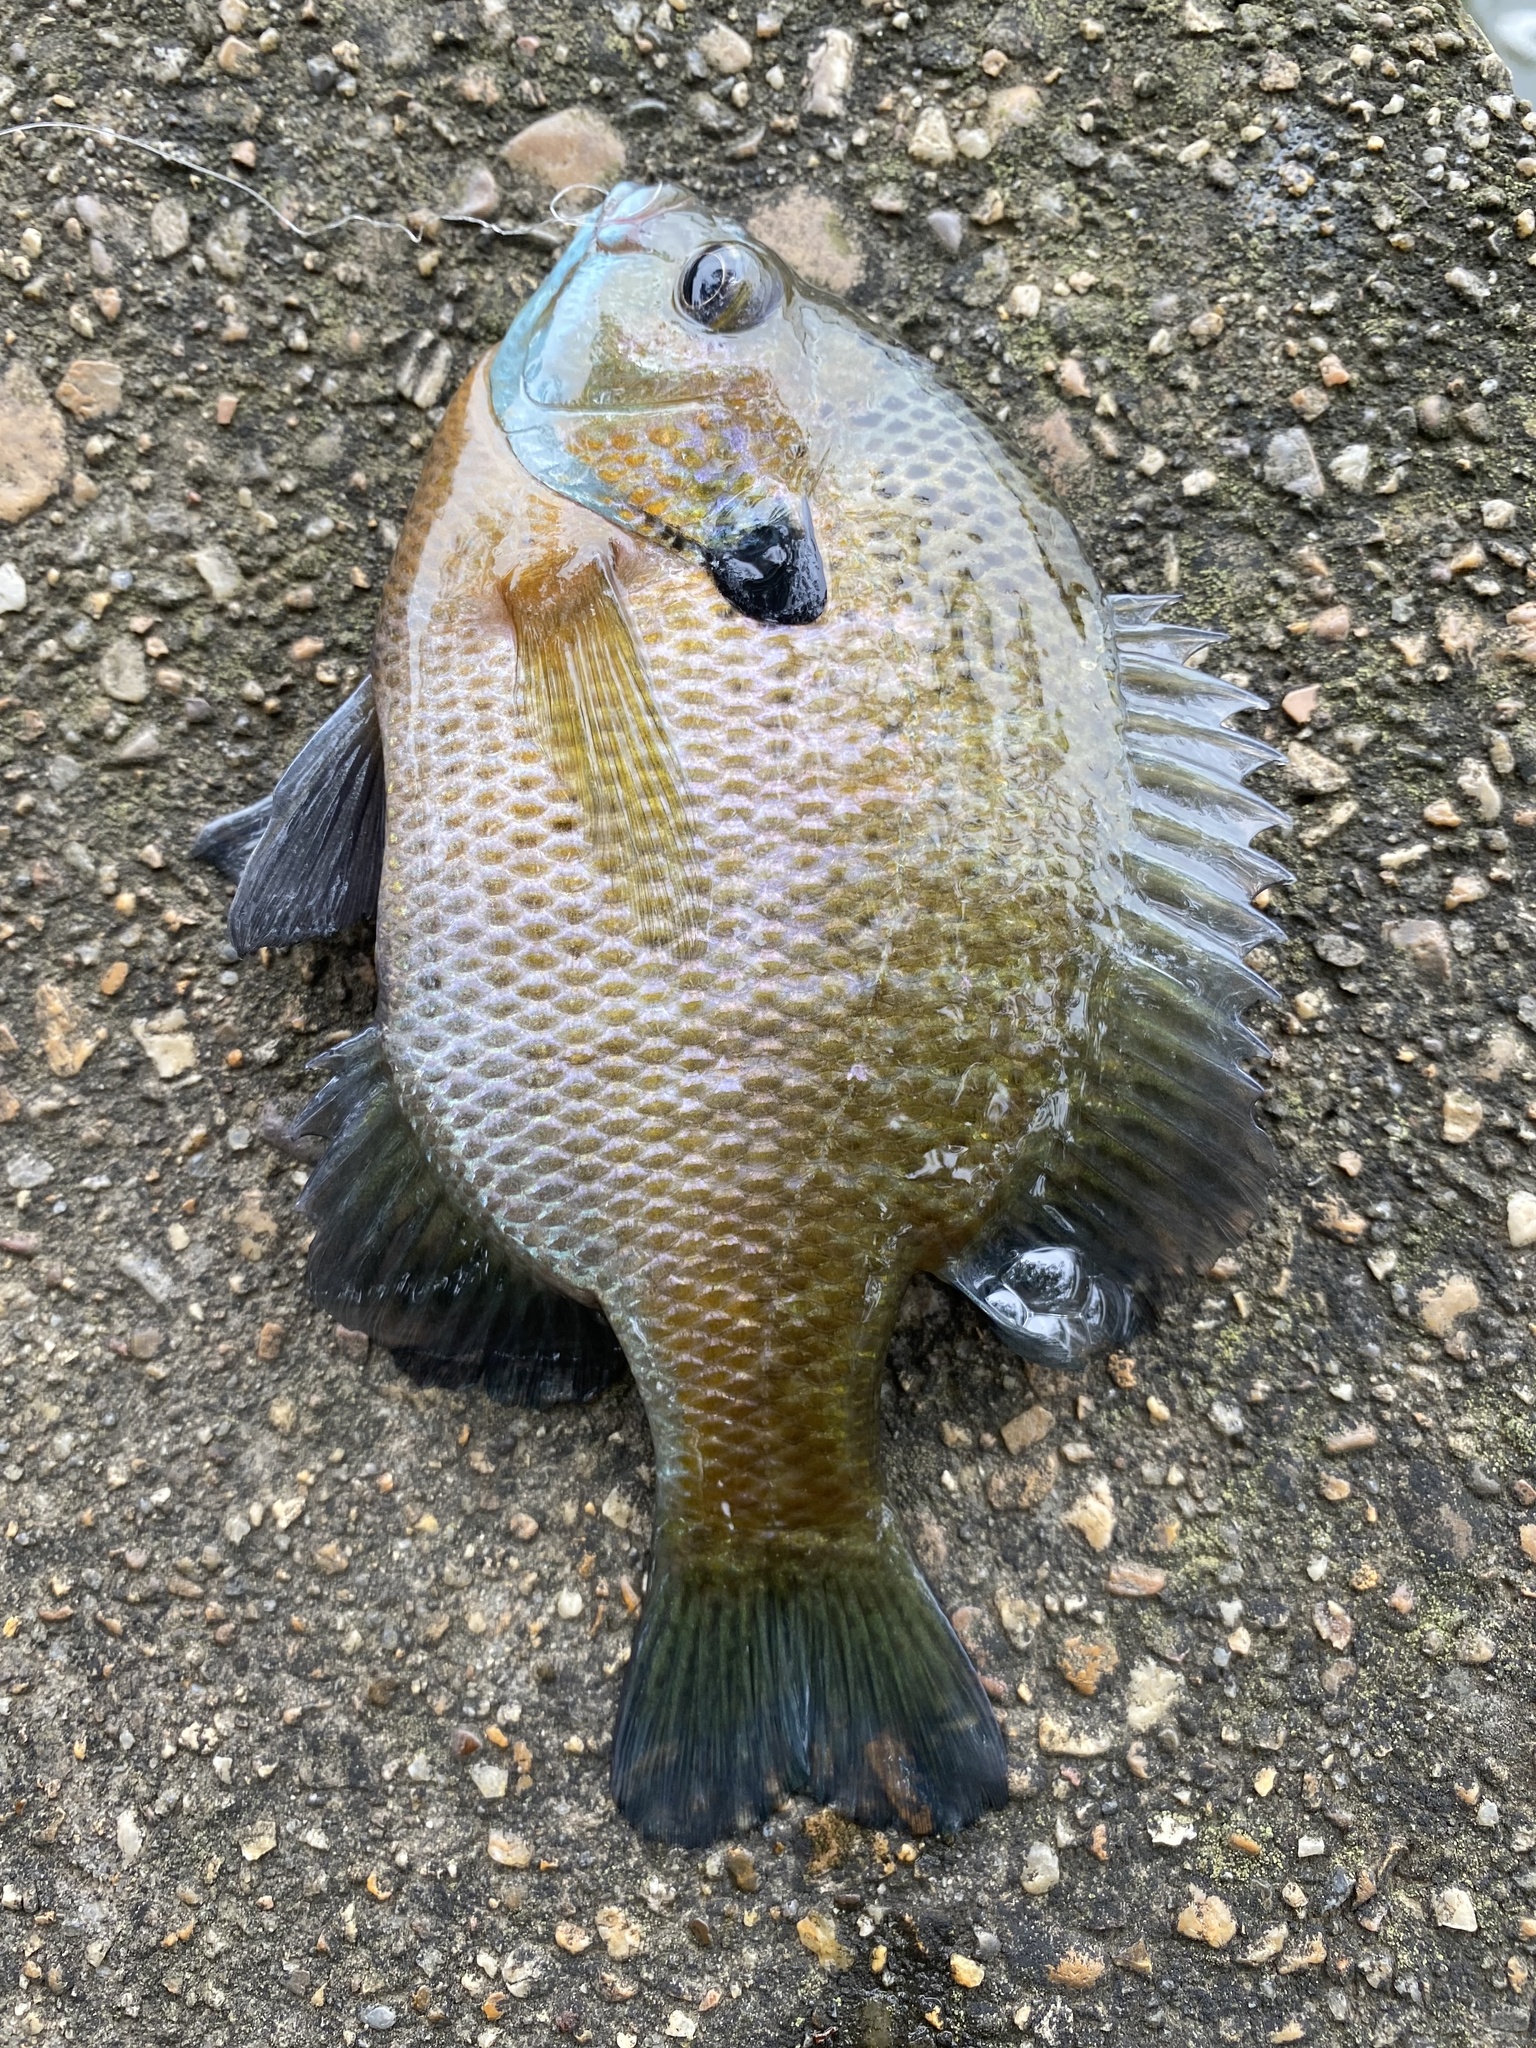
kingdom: Animalia
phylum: Chordata
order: Perciformes
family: Centrarchidae
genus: Lepomis
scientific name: Lepomis macrochirus
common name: Bluegill
